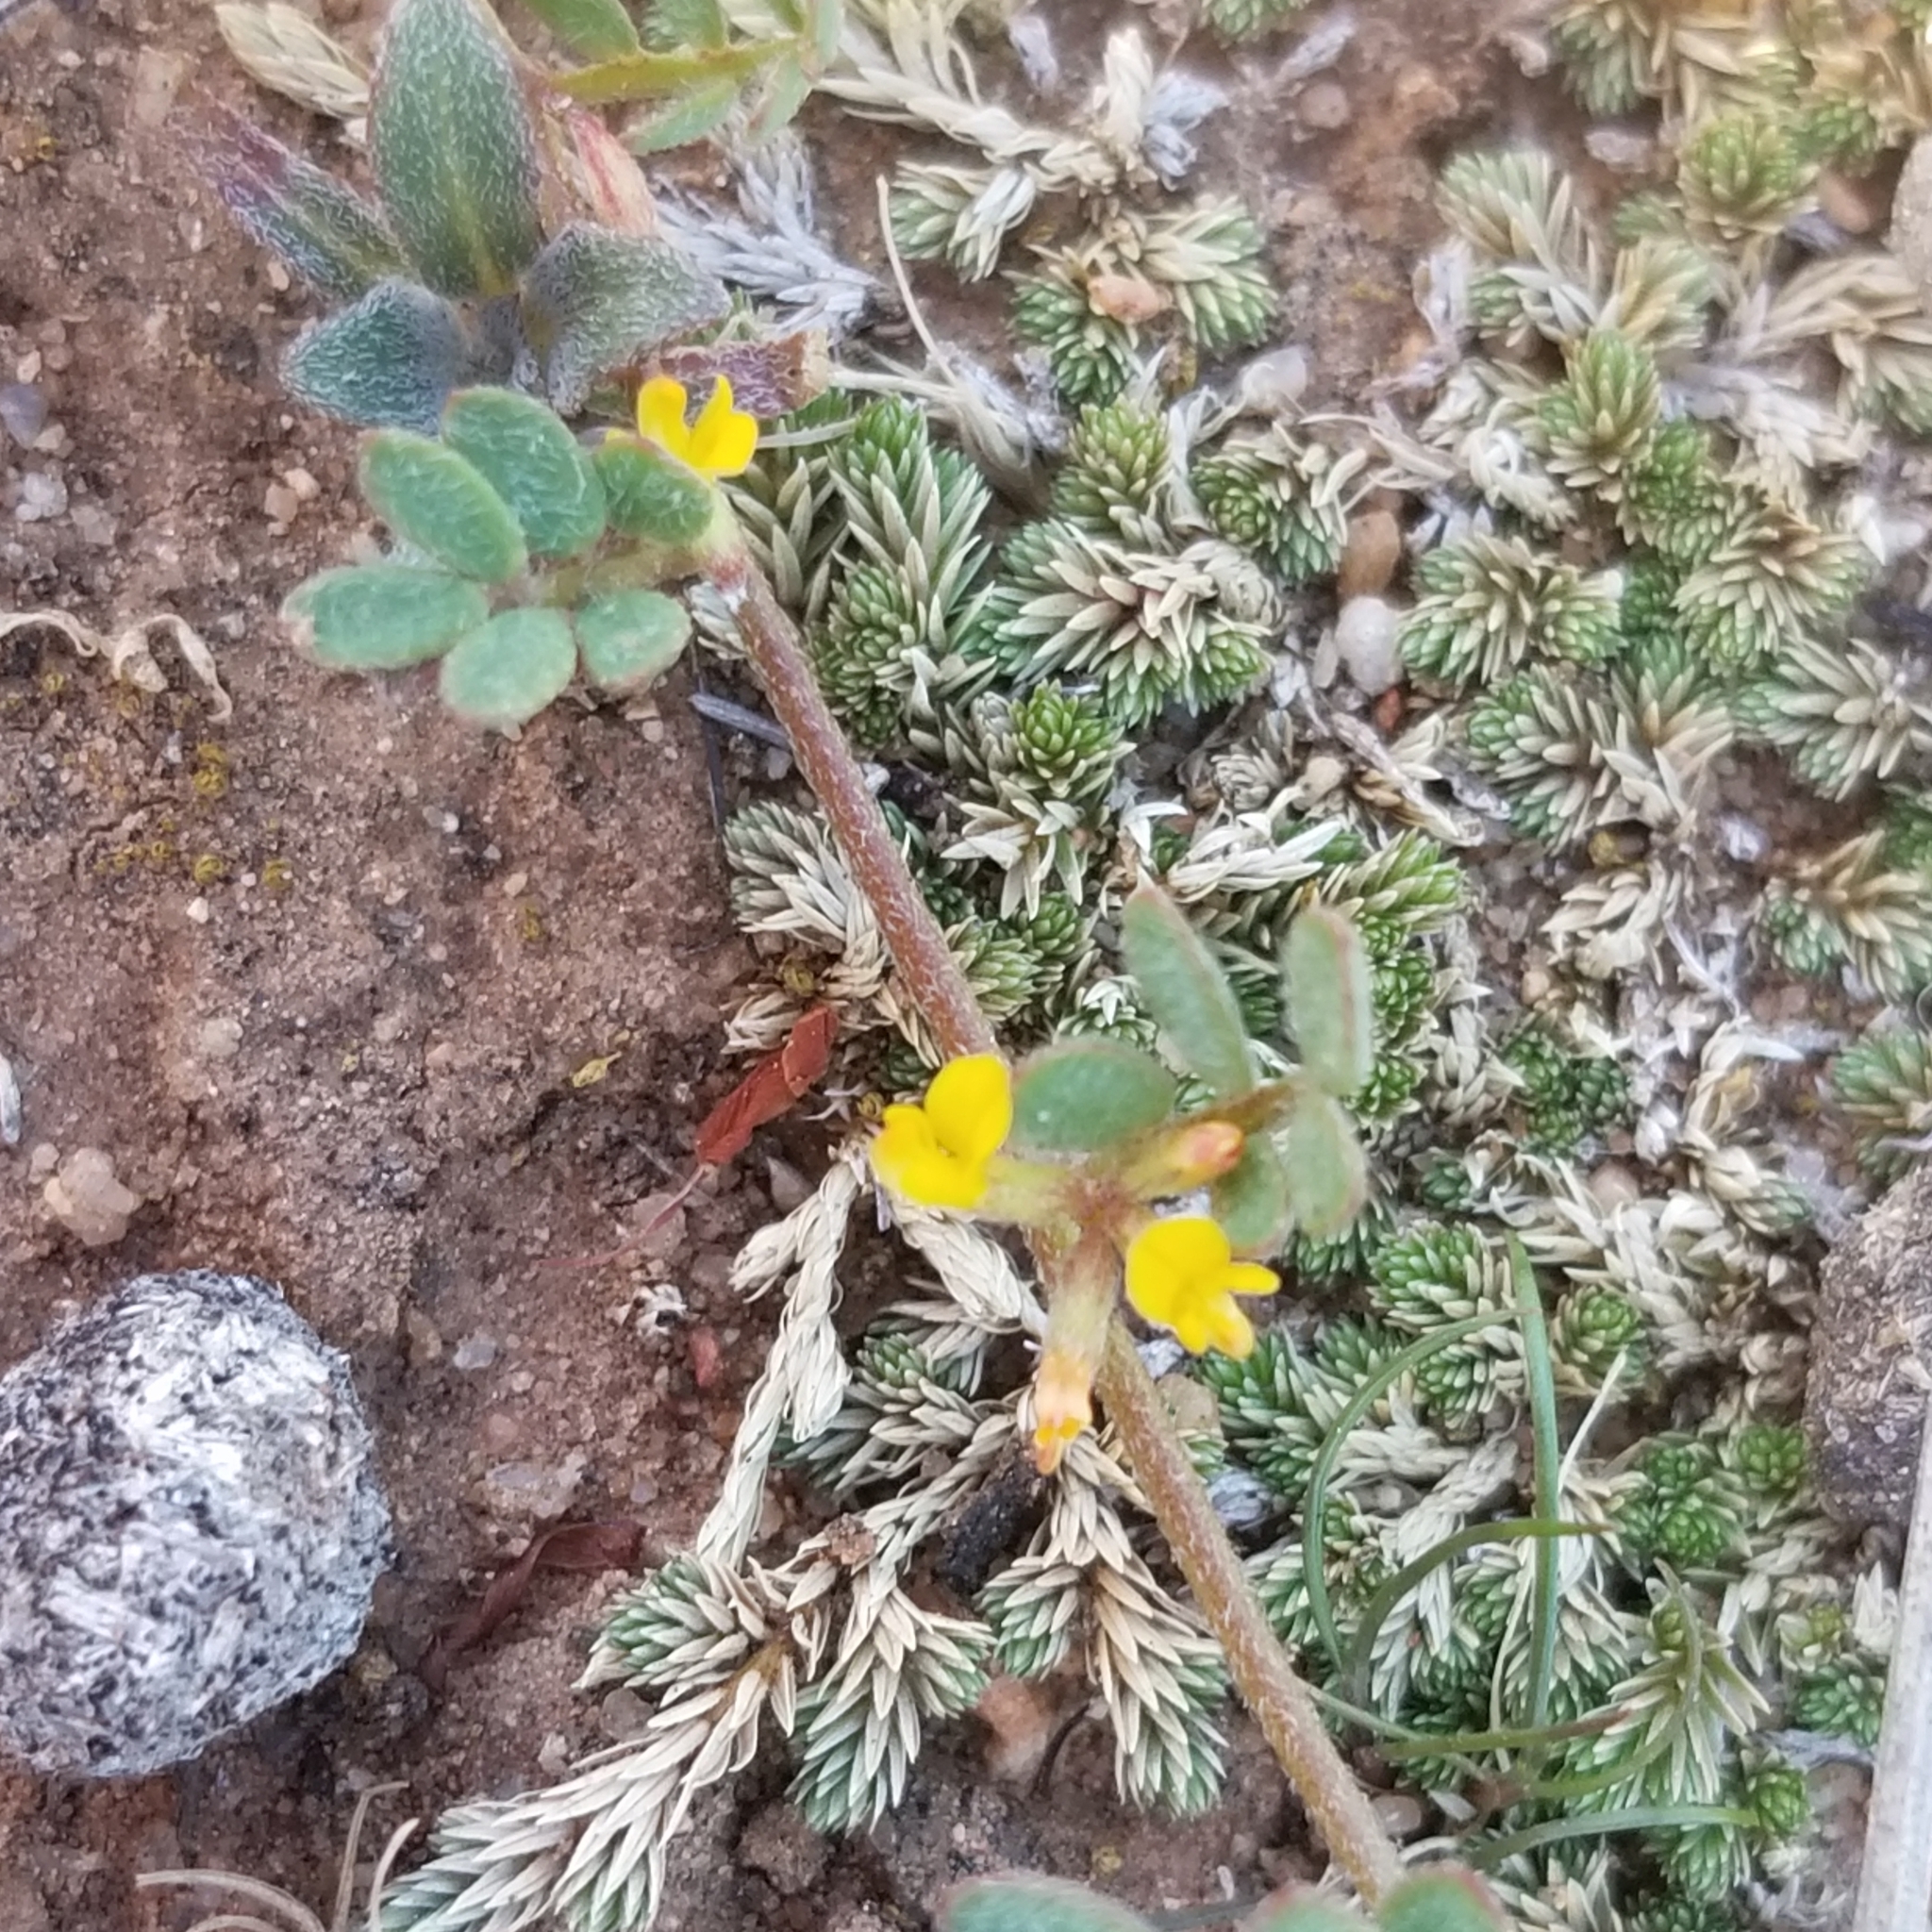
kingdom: Plantae
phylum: Tracheophyta
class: Magnoliopsida
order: Fabales
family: Fabaceae
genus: Acmispon
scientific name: Acmispon micranthus
